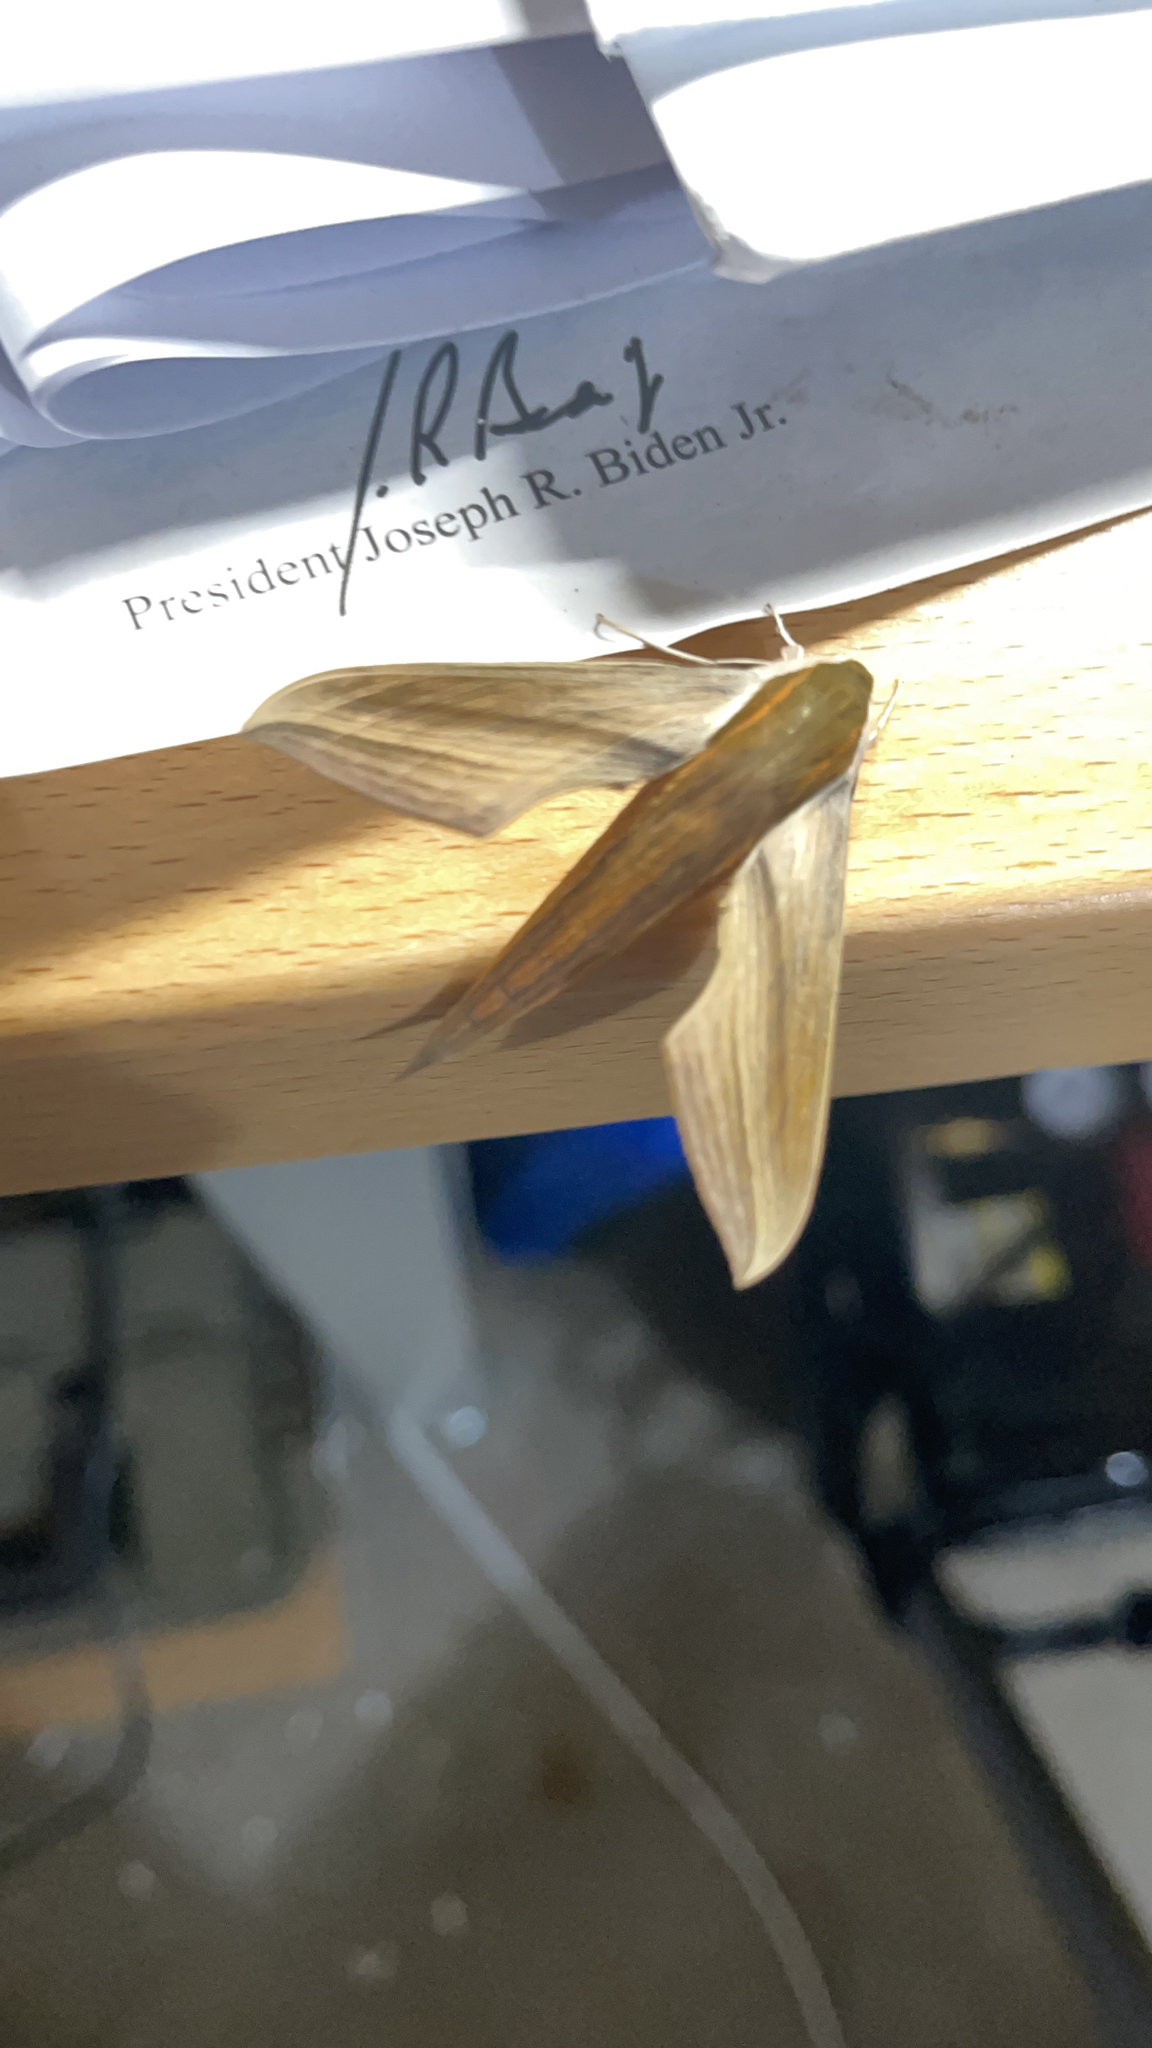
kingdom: Animalia
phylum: Arthropoda
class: Insecta
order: Lepidoptera
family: Sphingidae
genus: Xylophanes
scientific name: Xylophanes tersa
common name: Tersa sphinx
